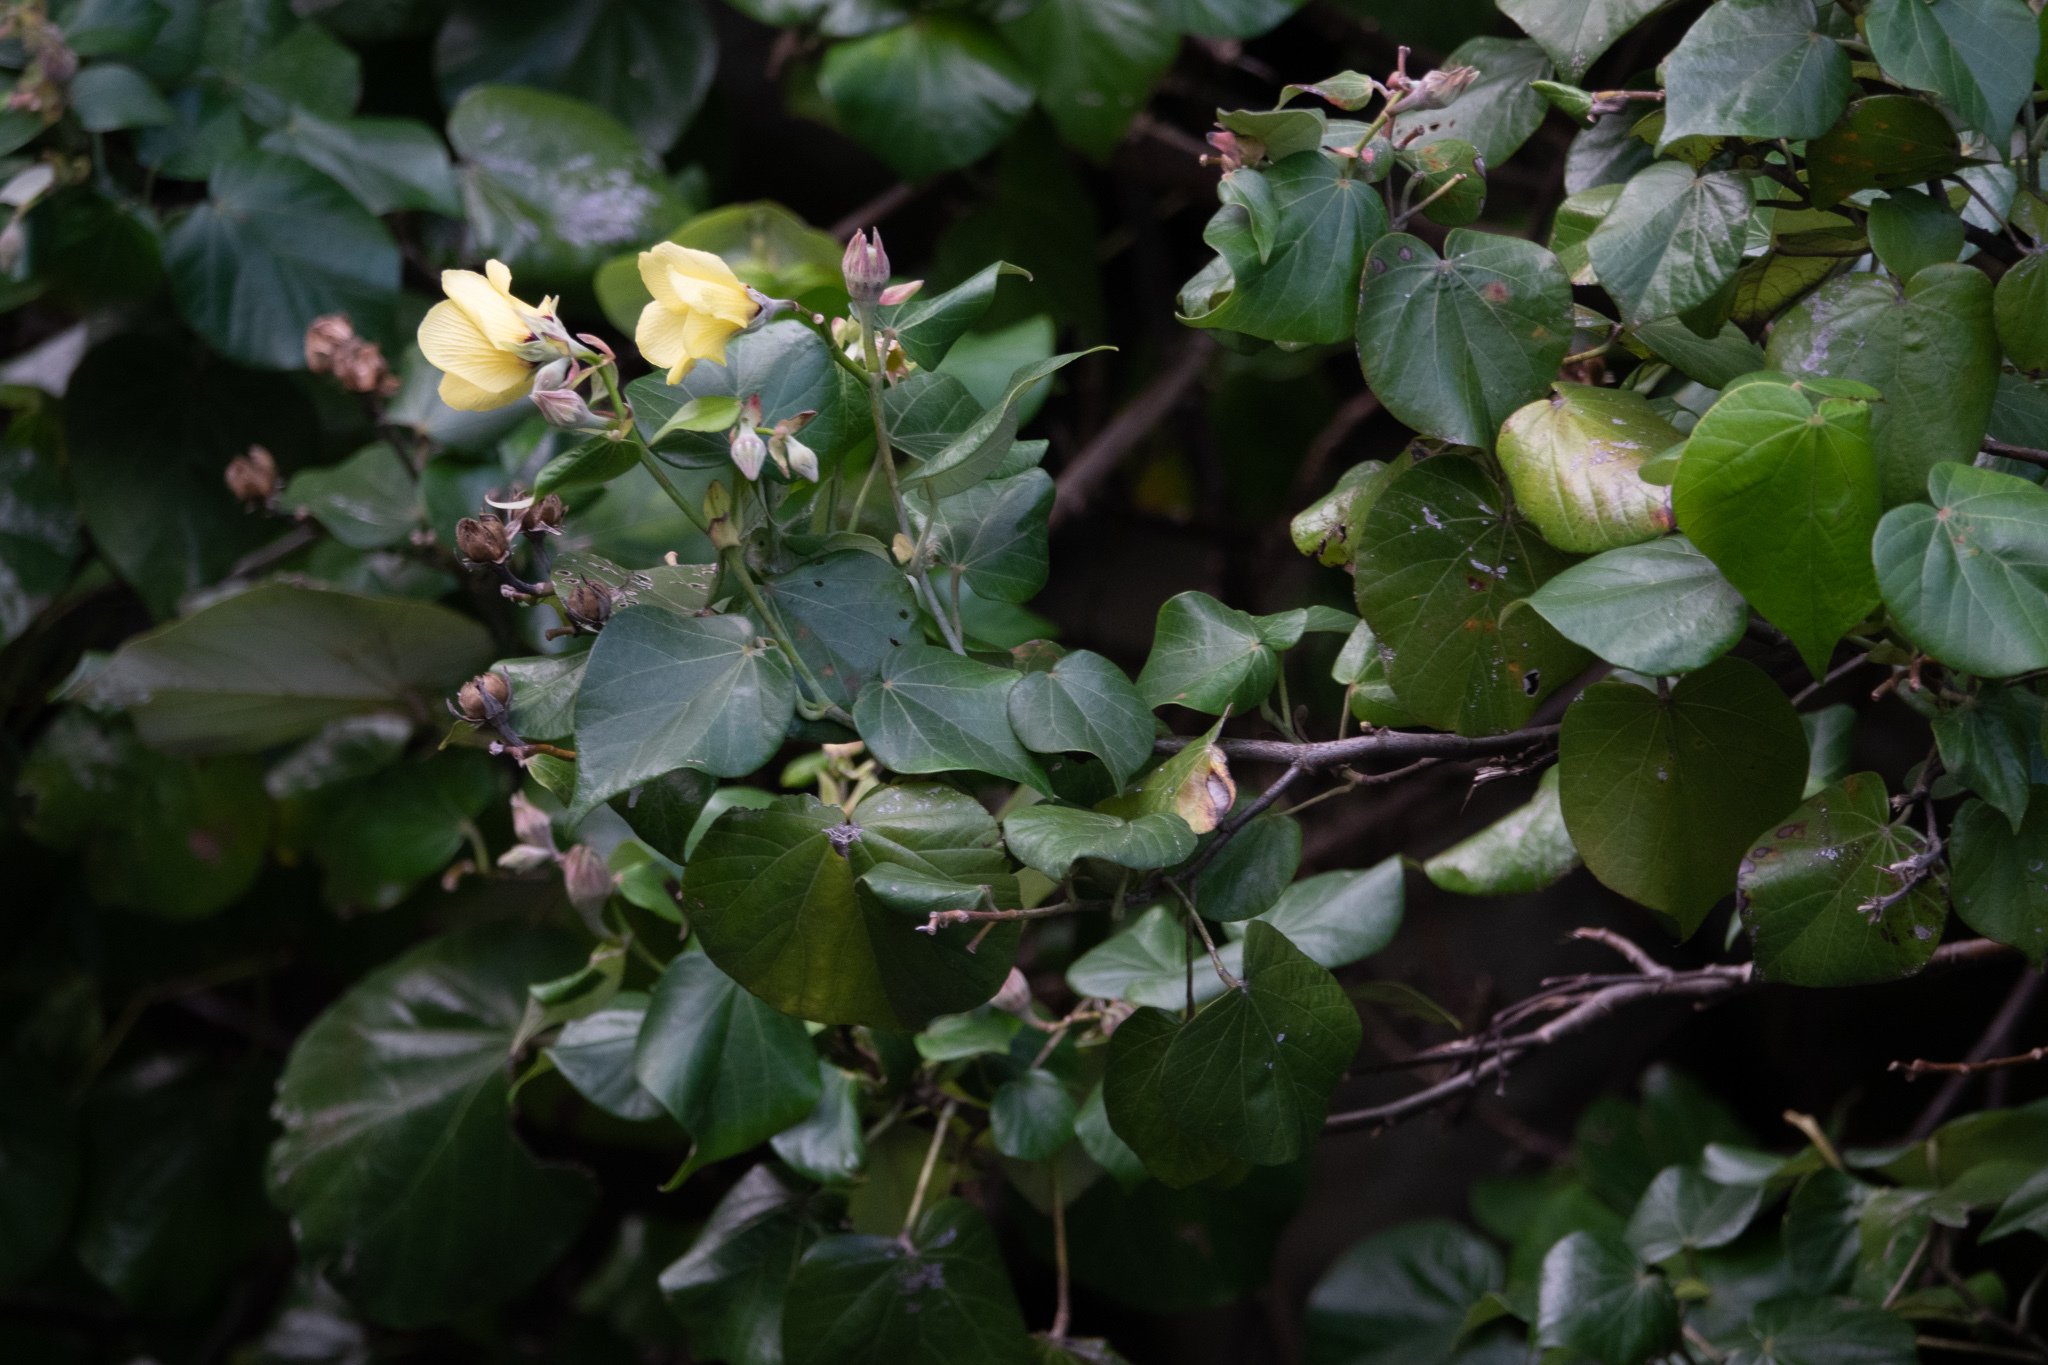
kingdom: Plantae
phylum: Tracheophyta
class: Magnoliopsida
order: Malvales
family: Malvaceae
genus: Talipariti
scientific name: Talipariti tiliaceum
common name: Sea hibiscus
